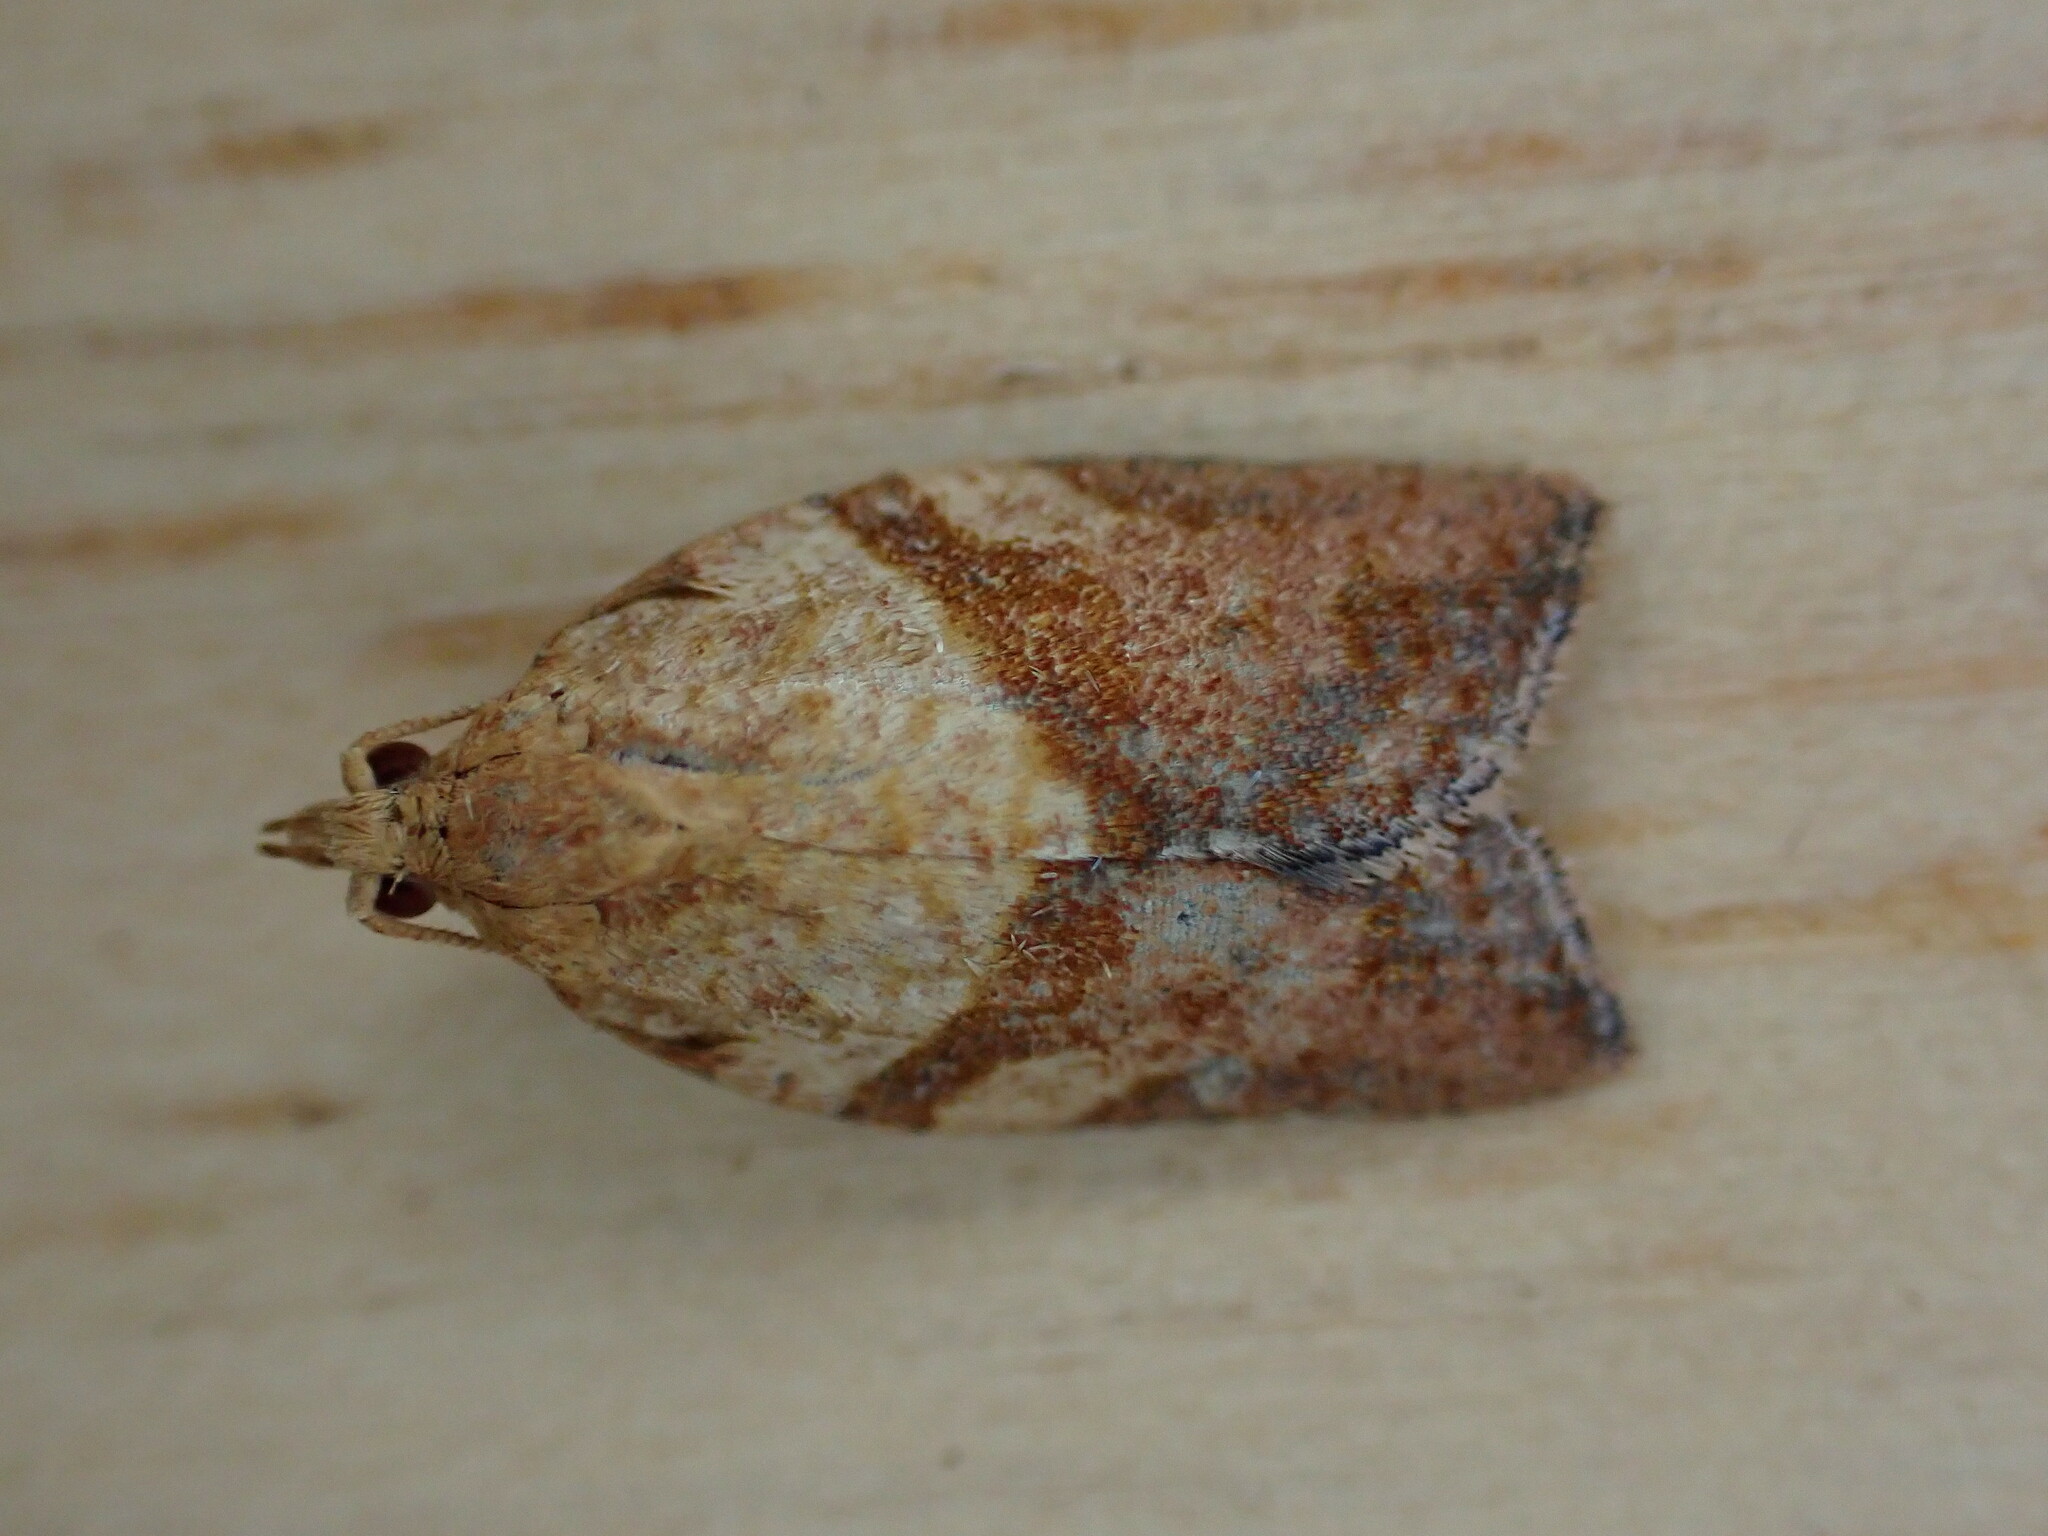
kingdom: Animalia
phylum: Arthropoda
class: Insecta
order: Lepidoptera
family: Tortricidae
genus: Epiphyas
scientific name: Epiphyas postvittana
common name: Light brown apple moth
